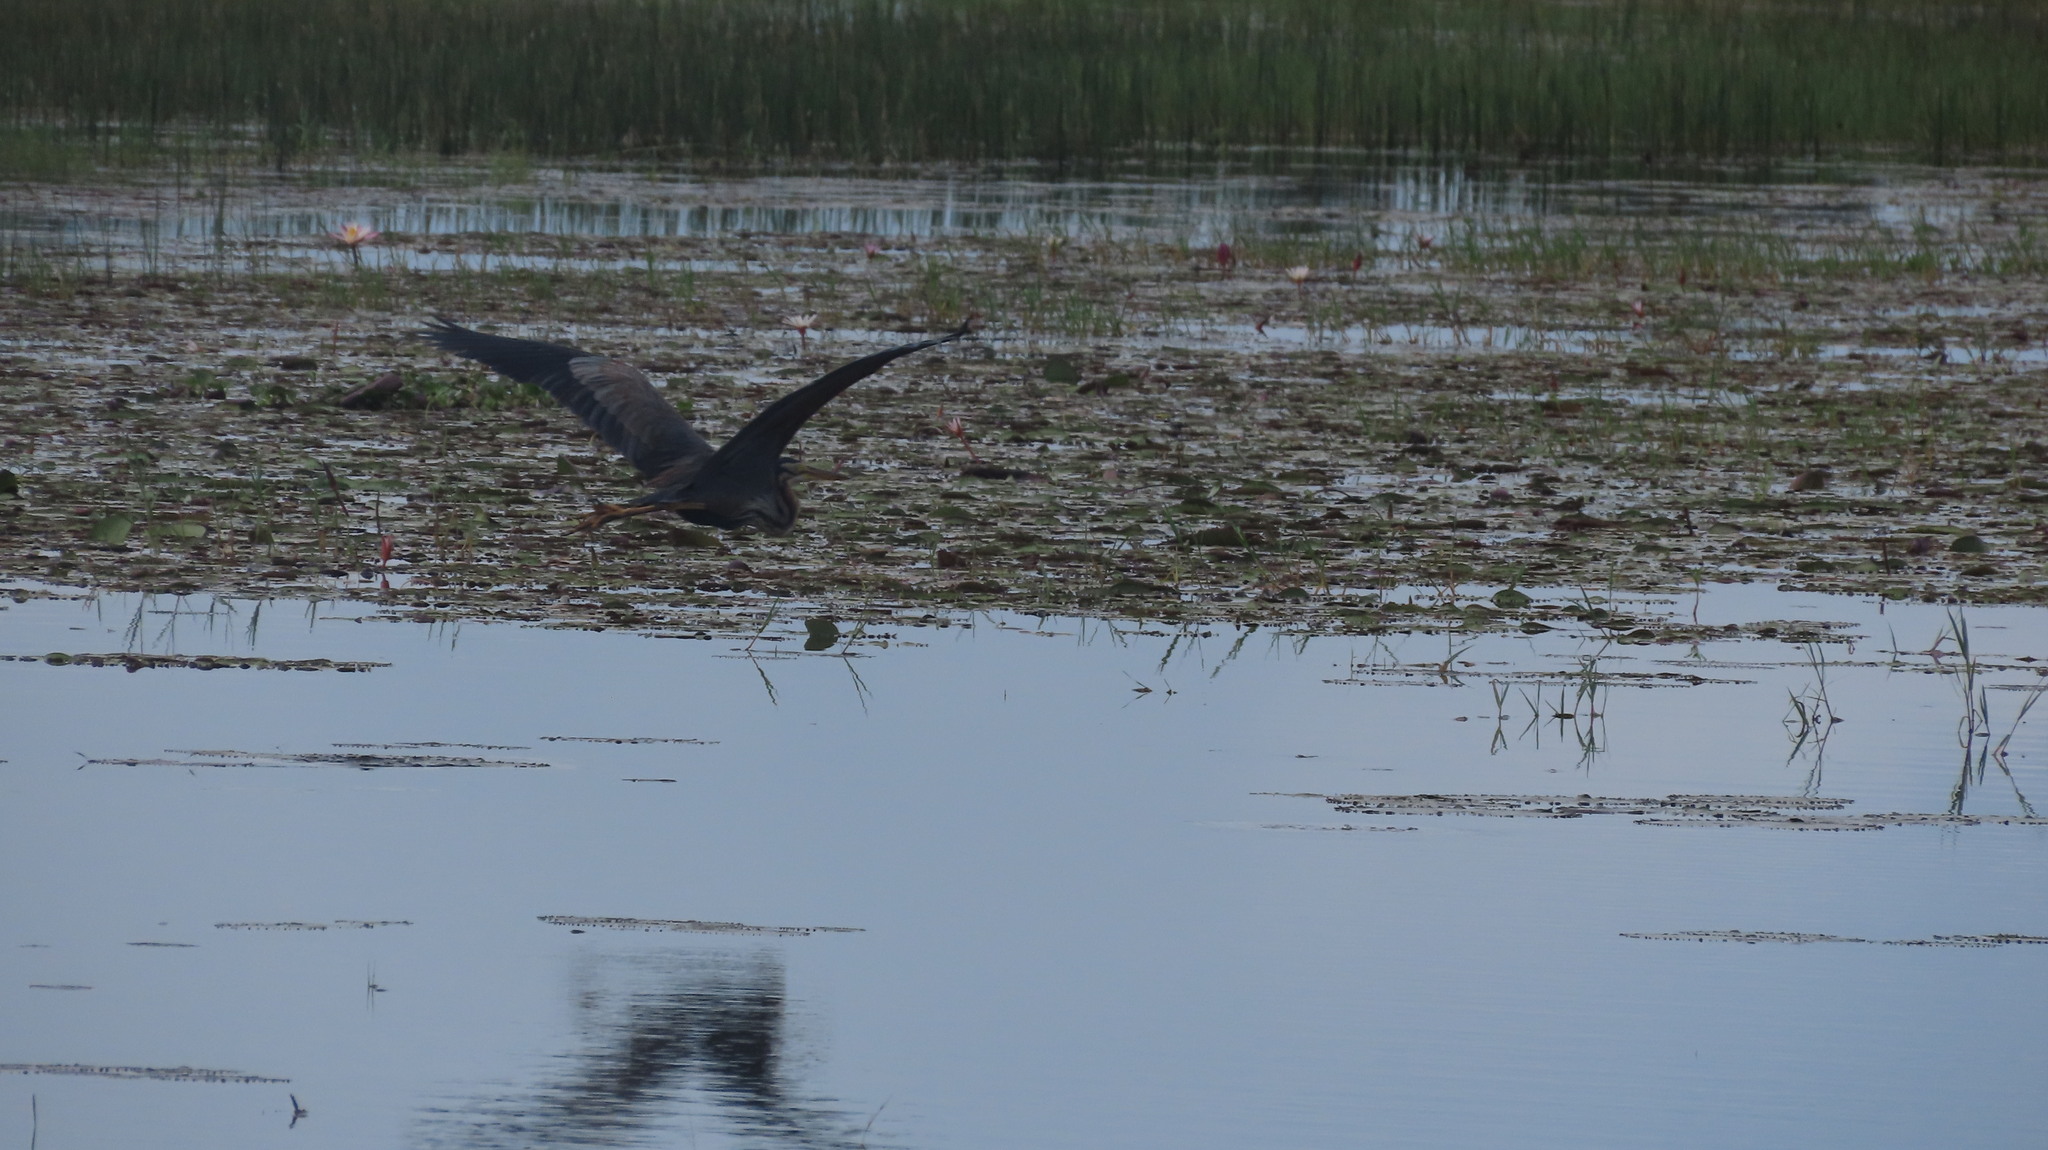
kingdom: Animalia
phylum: Chordata
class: Aves
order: Pelecaniformes
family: Ardeidae
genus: Ardea
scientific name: Ardea purpurea
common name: Purple heron
